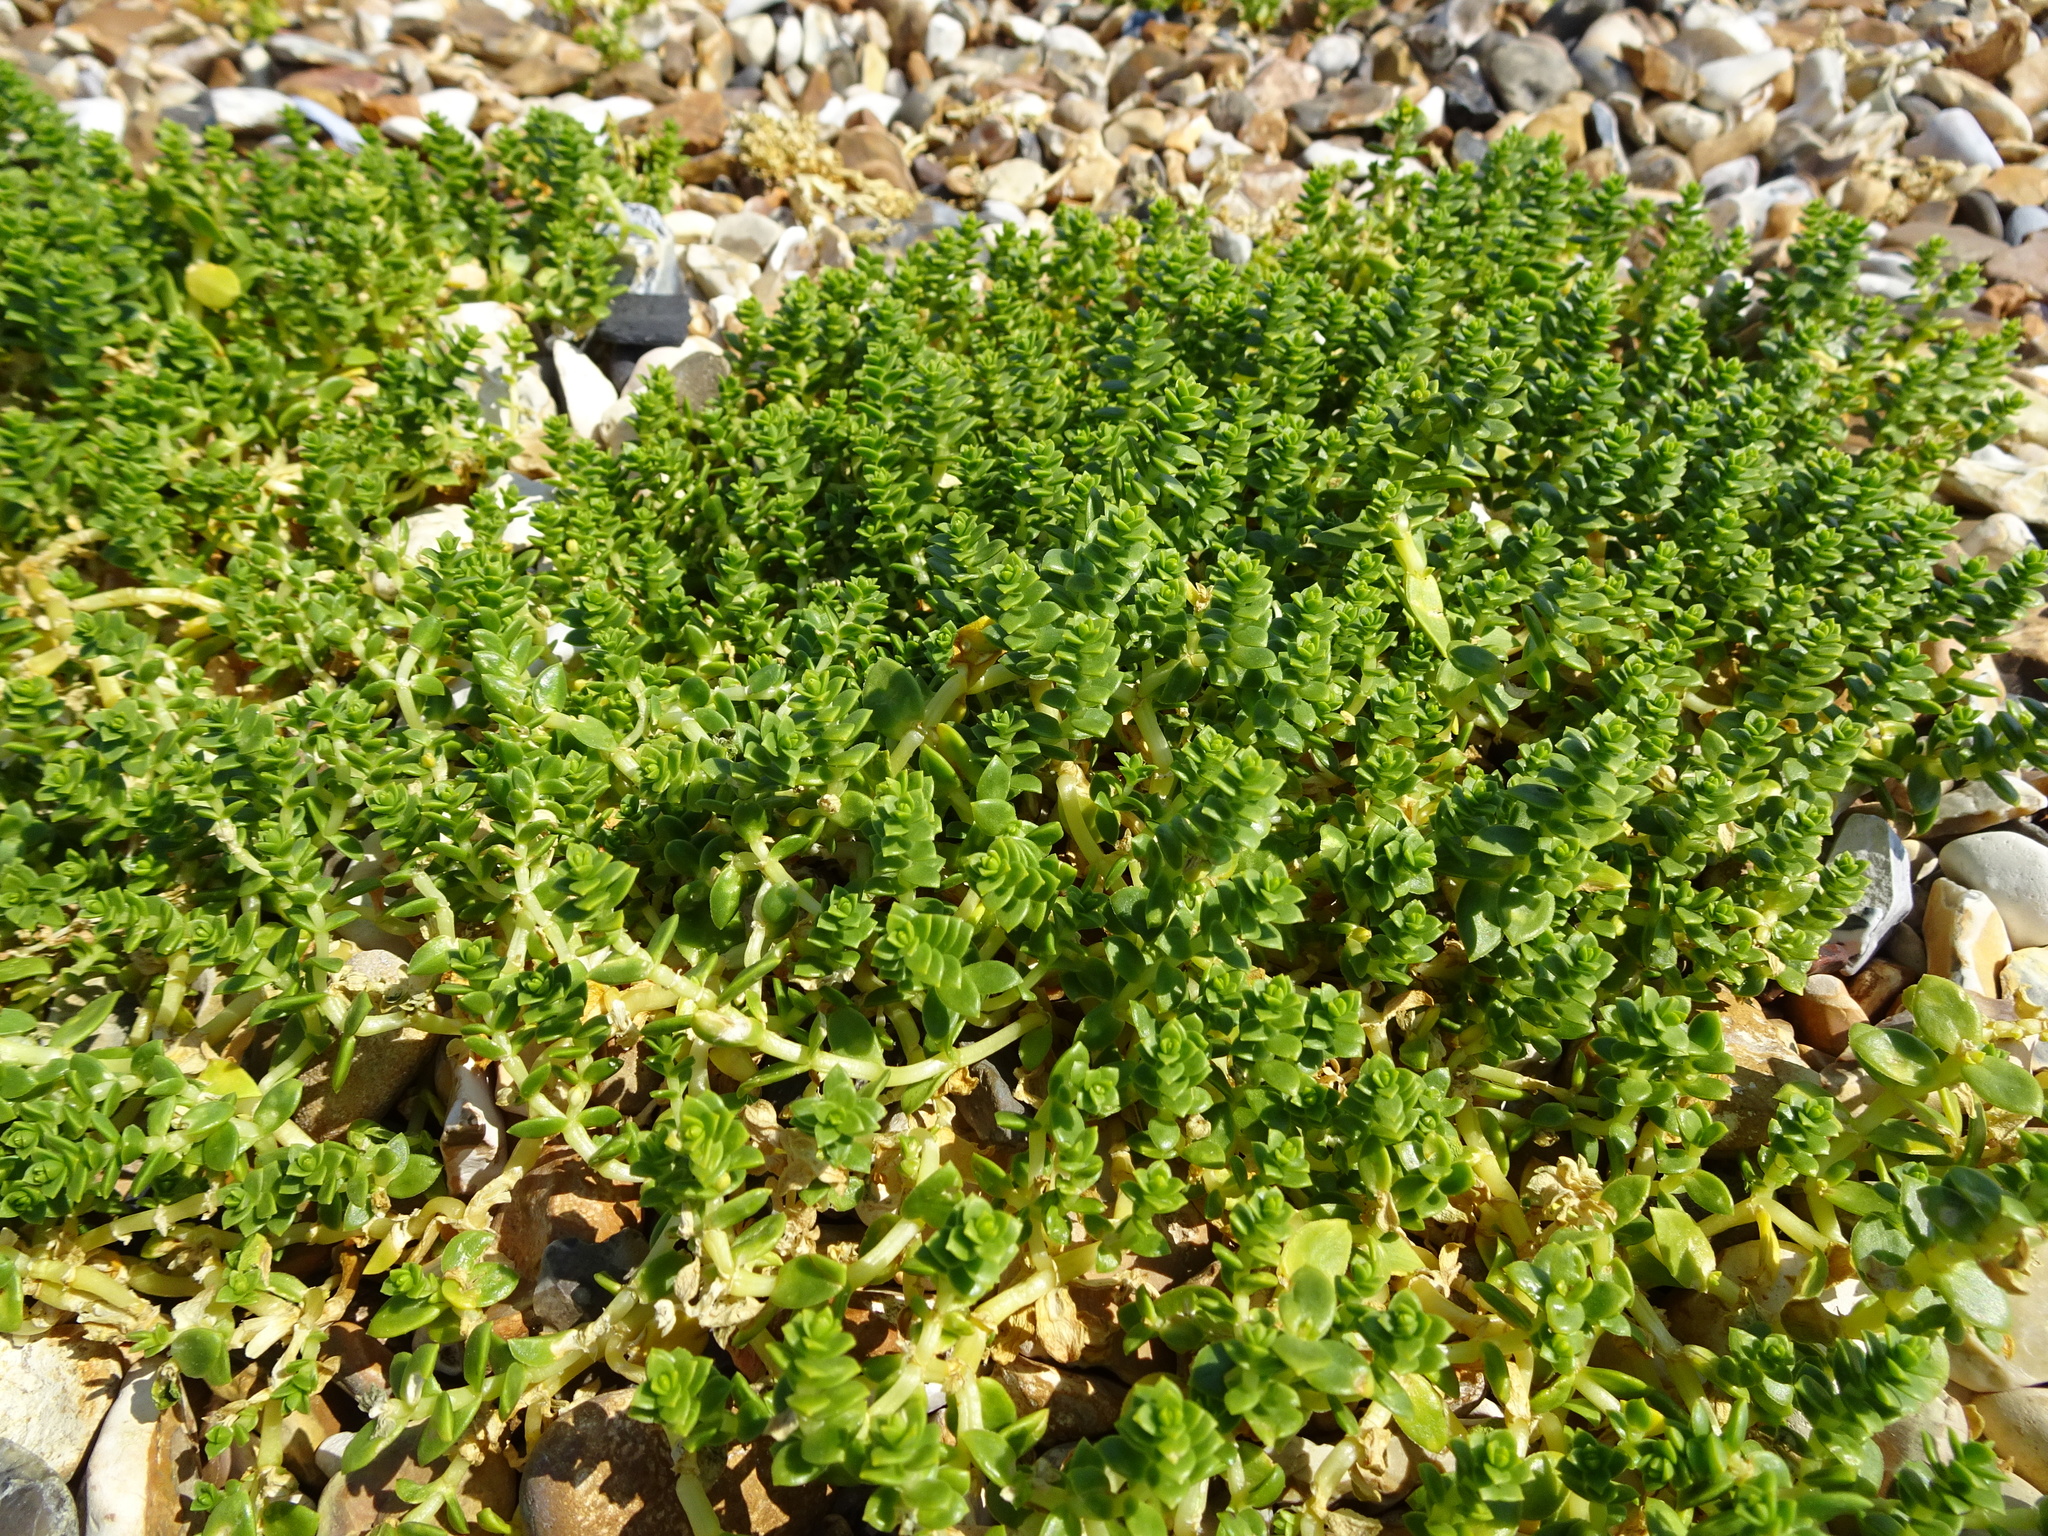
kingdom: Plantae
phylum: Tracheophyta
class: Magnoliopsida
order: Caryophyllales
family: Caryophyllaceae
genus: Honckenya
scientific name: Honckenya peploides
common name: Sea sandwort
